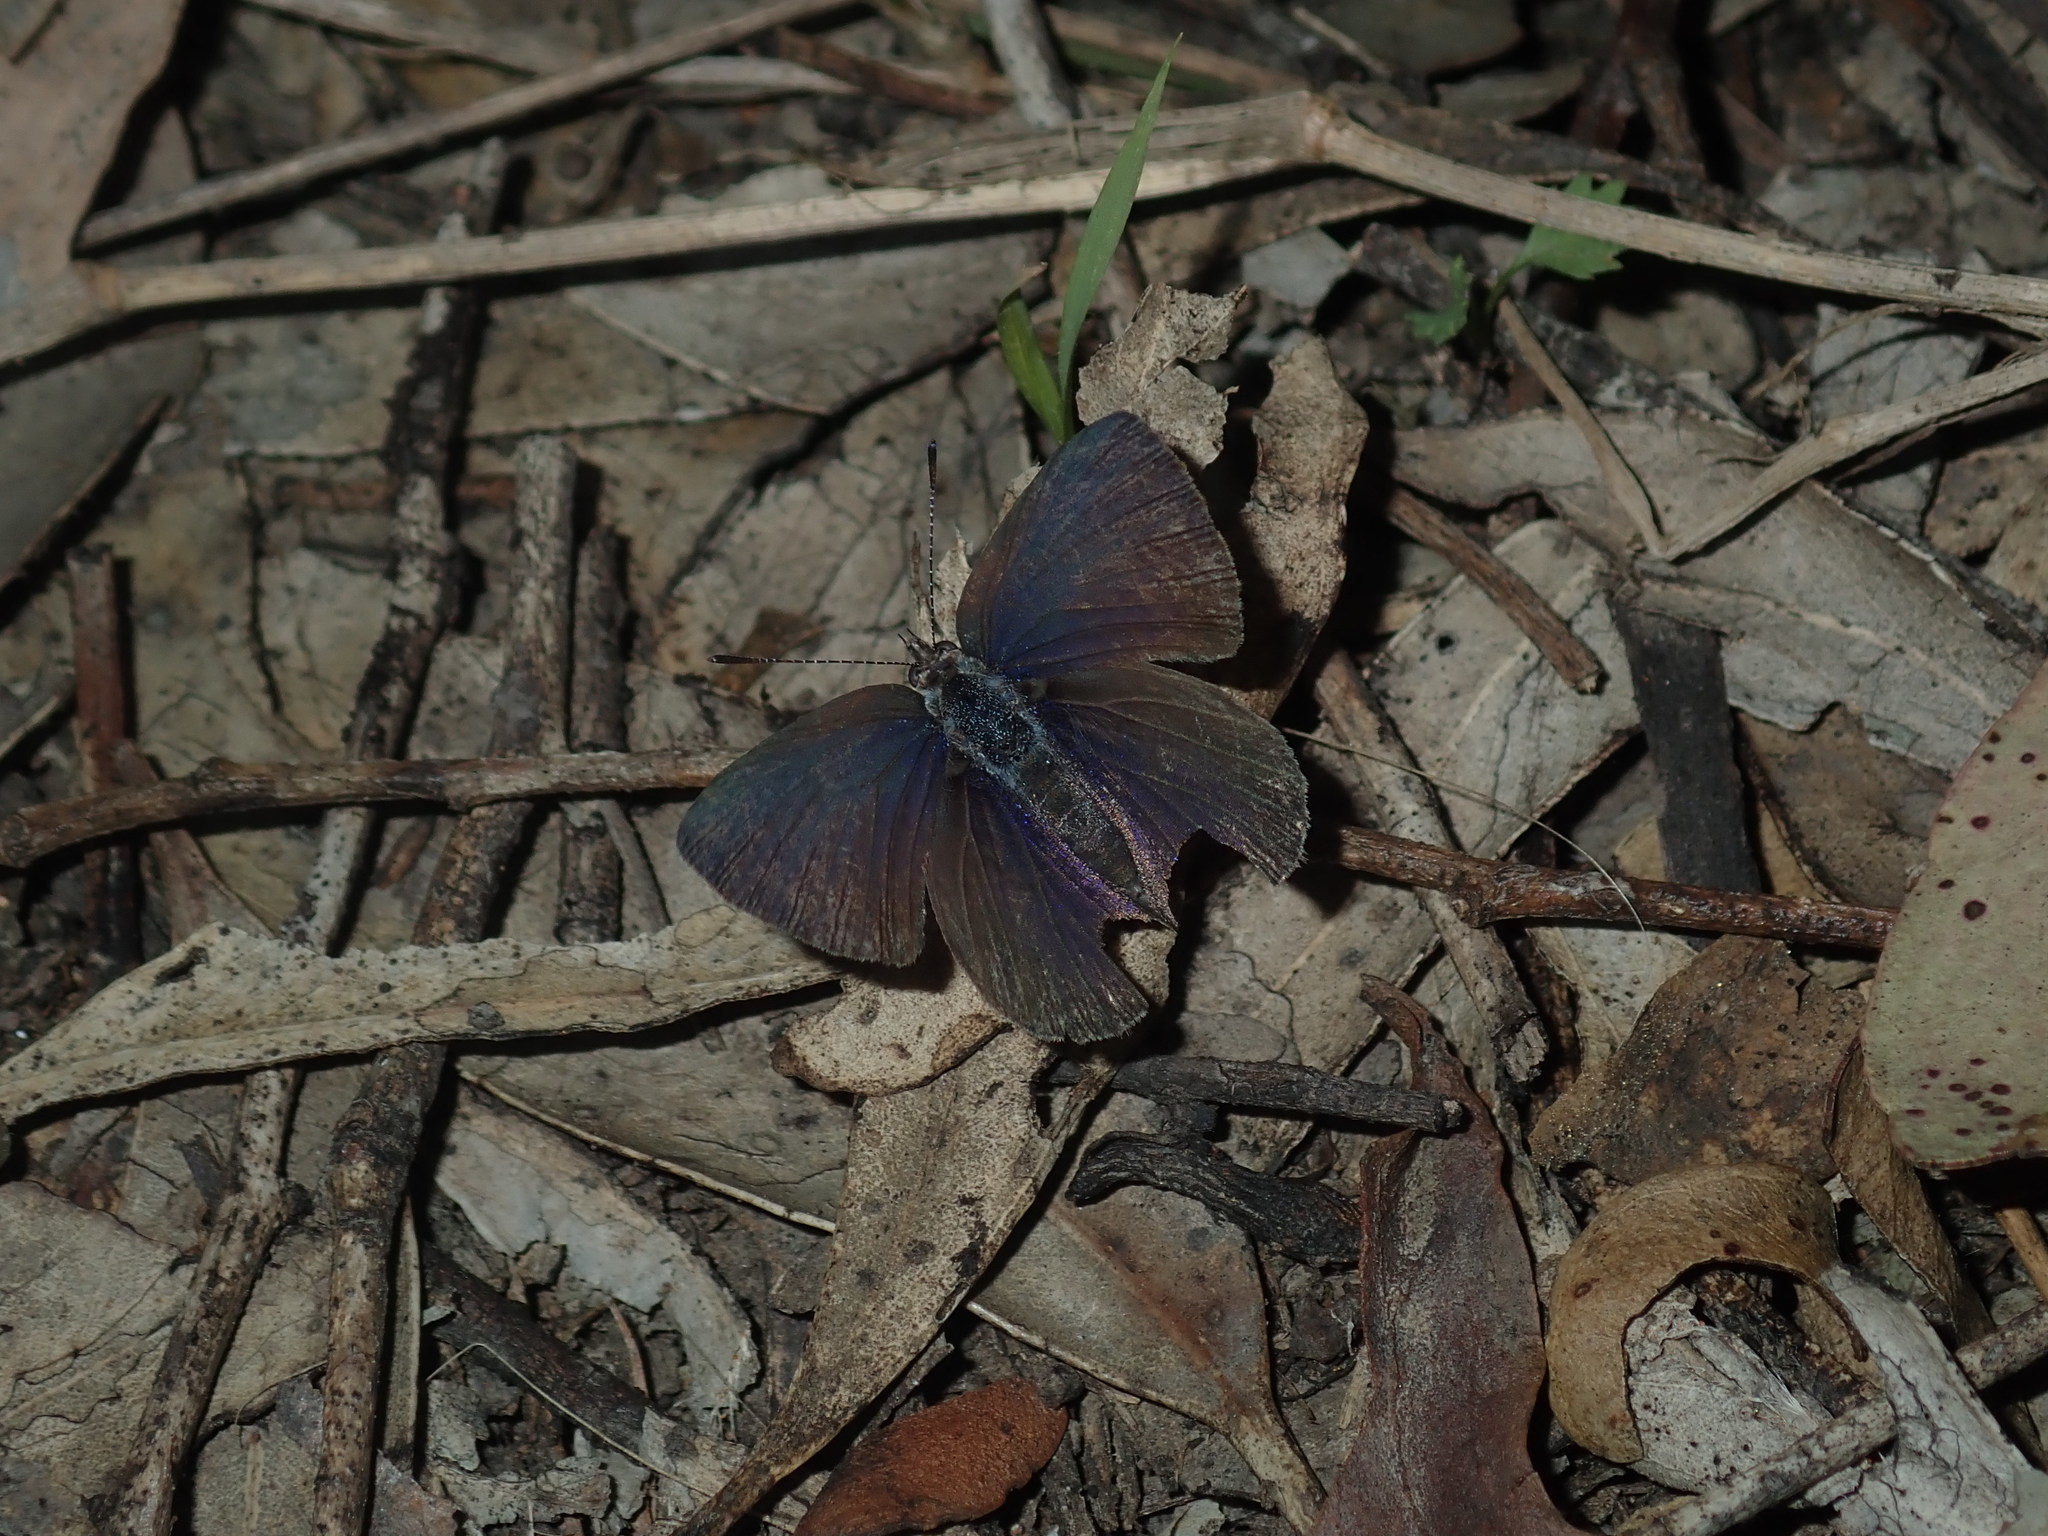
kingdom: Animalia
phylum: Arthropoda
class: Insecta
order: Lepidoptera
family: Lycaenidae
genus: Candalides
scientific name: Candalides
